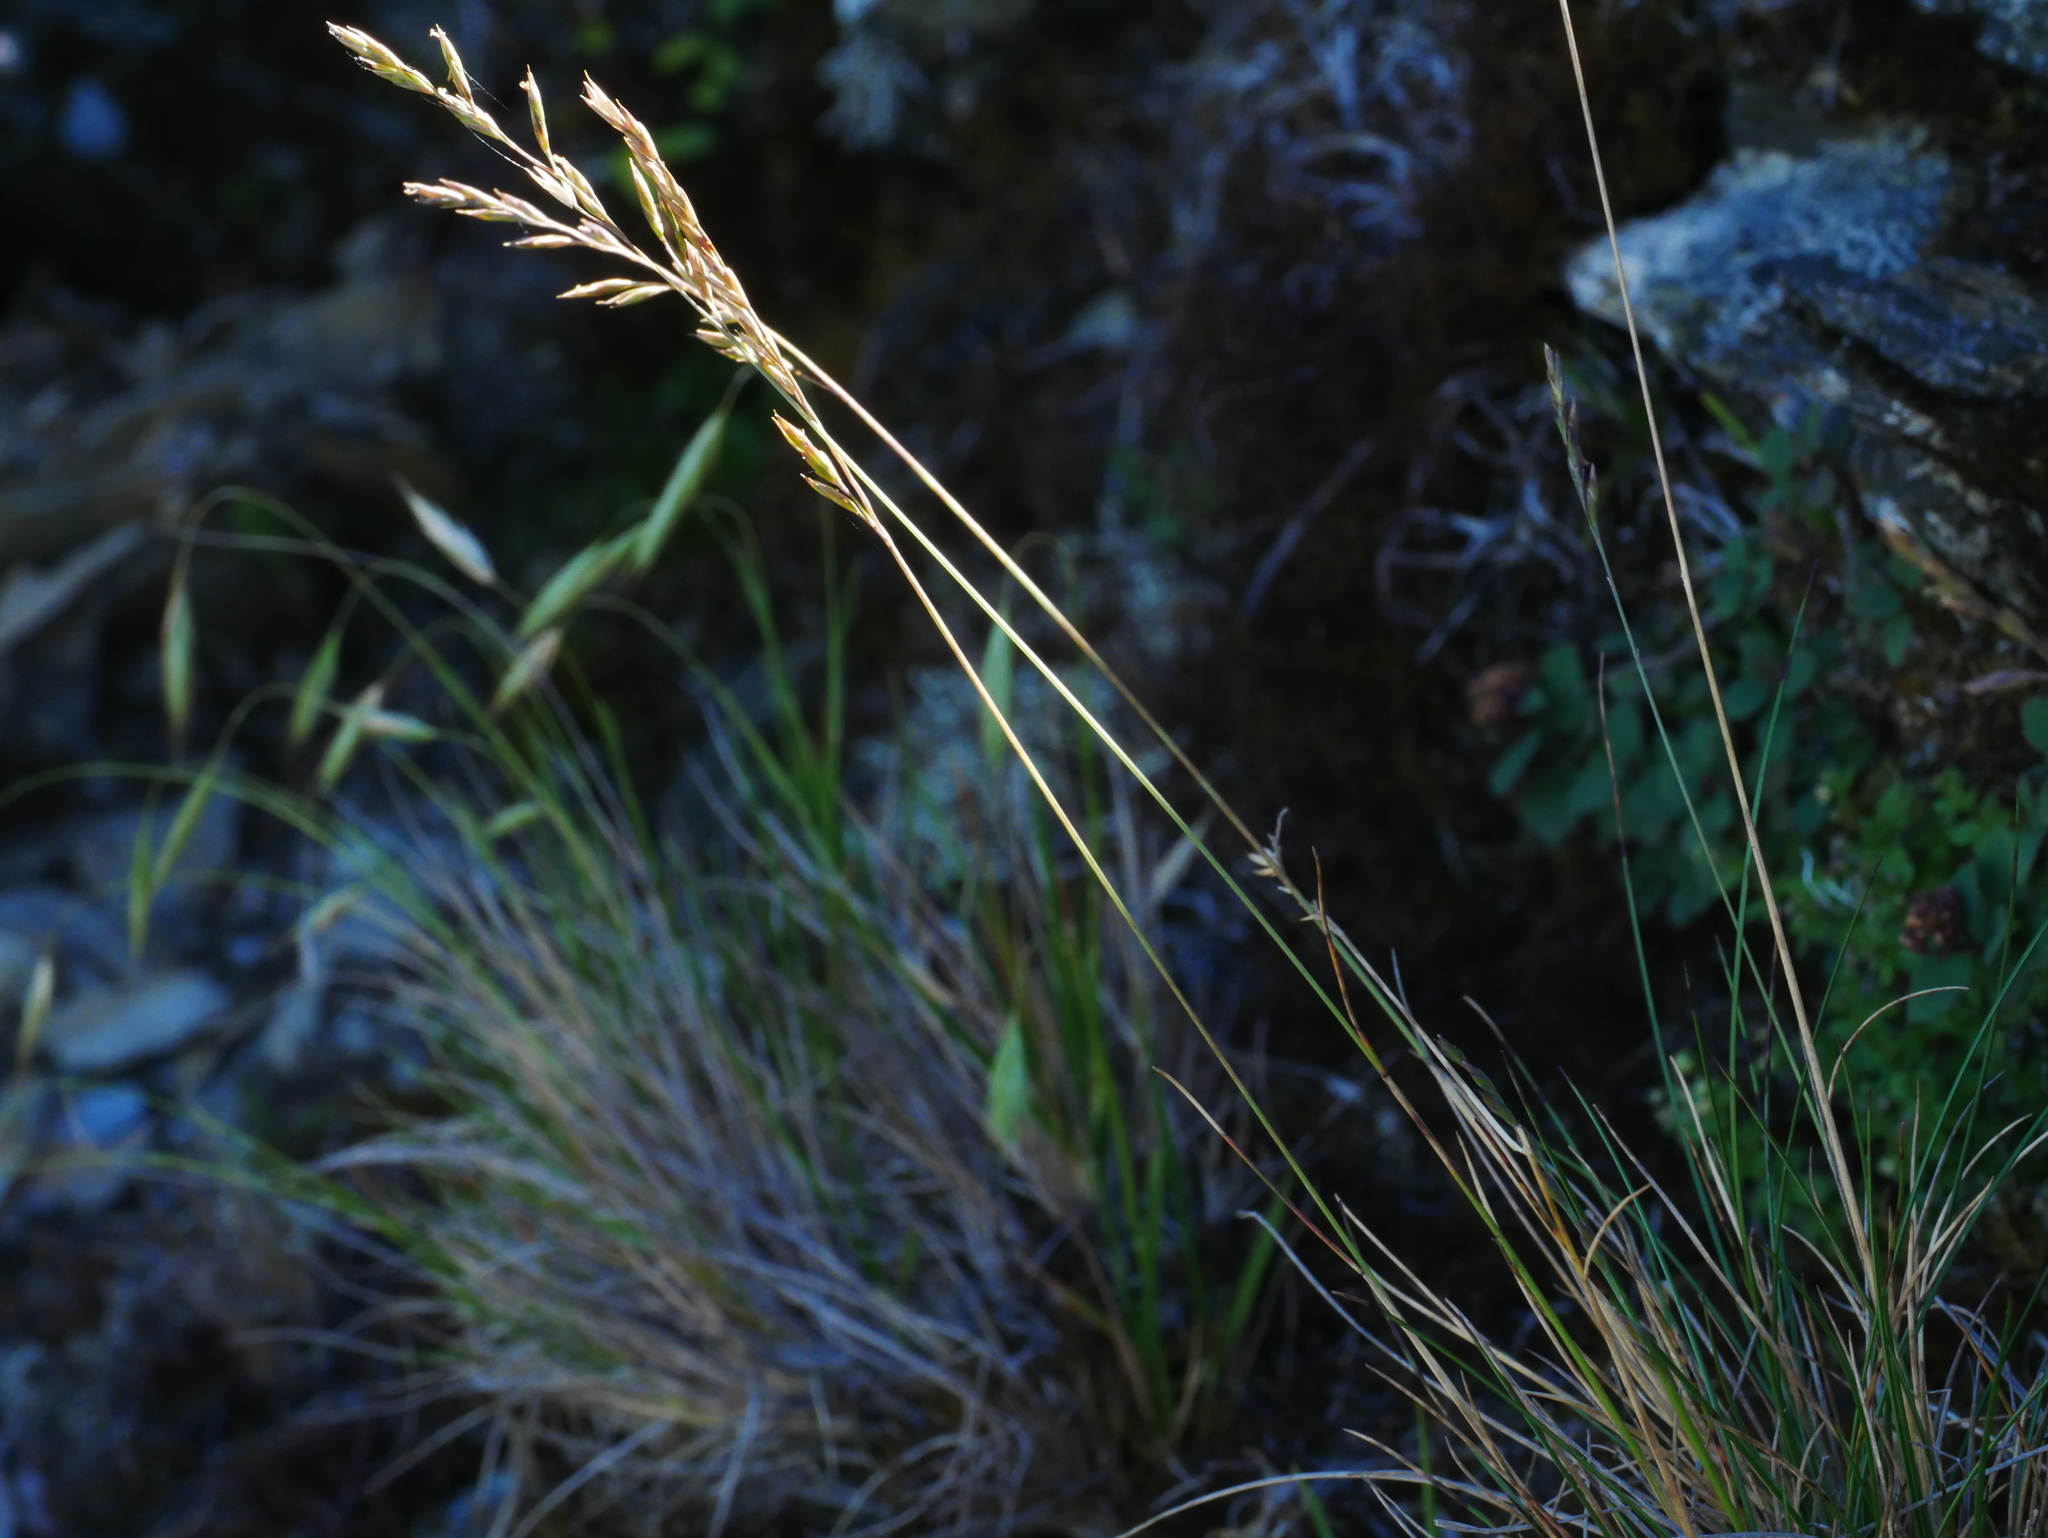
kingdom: Plantae
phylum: Tracheophyta
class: Liliopsida
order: Poales
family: Poaceae
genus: Festuca
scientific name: Festuca ovina
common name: Sheep fescue
